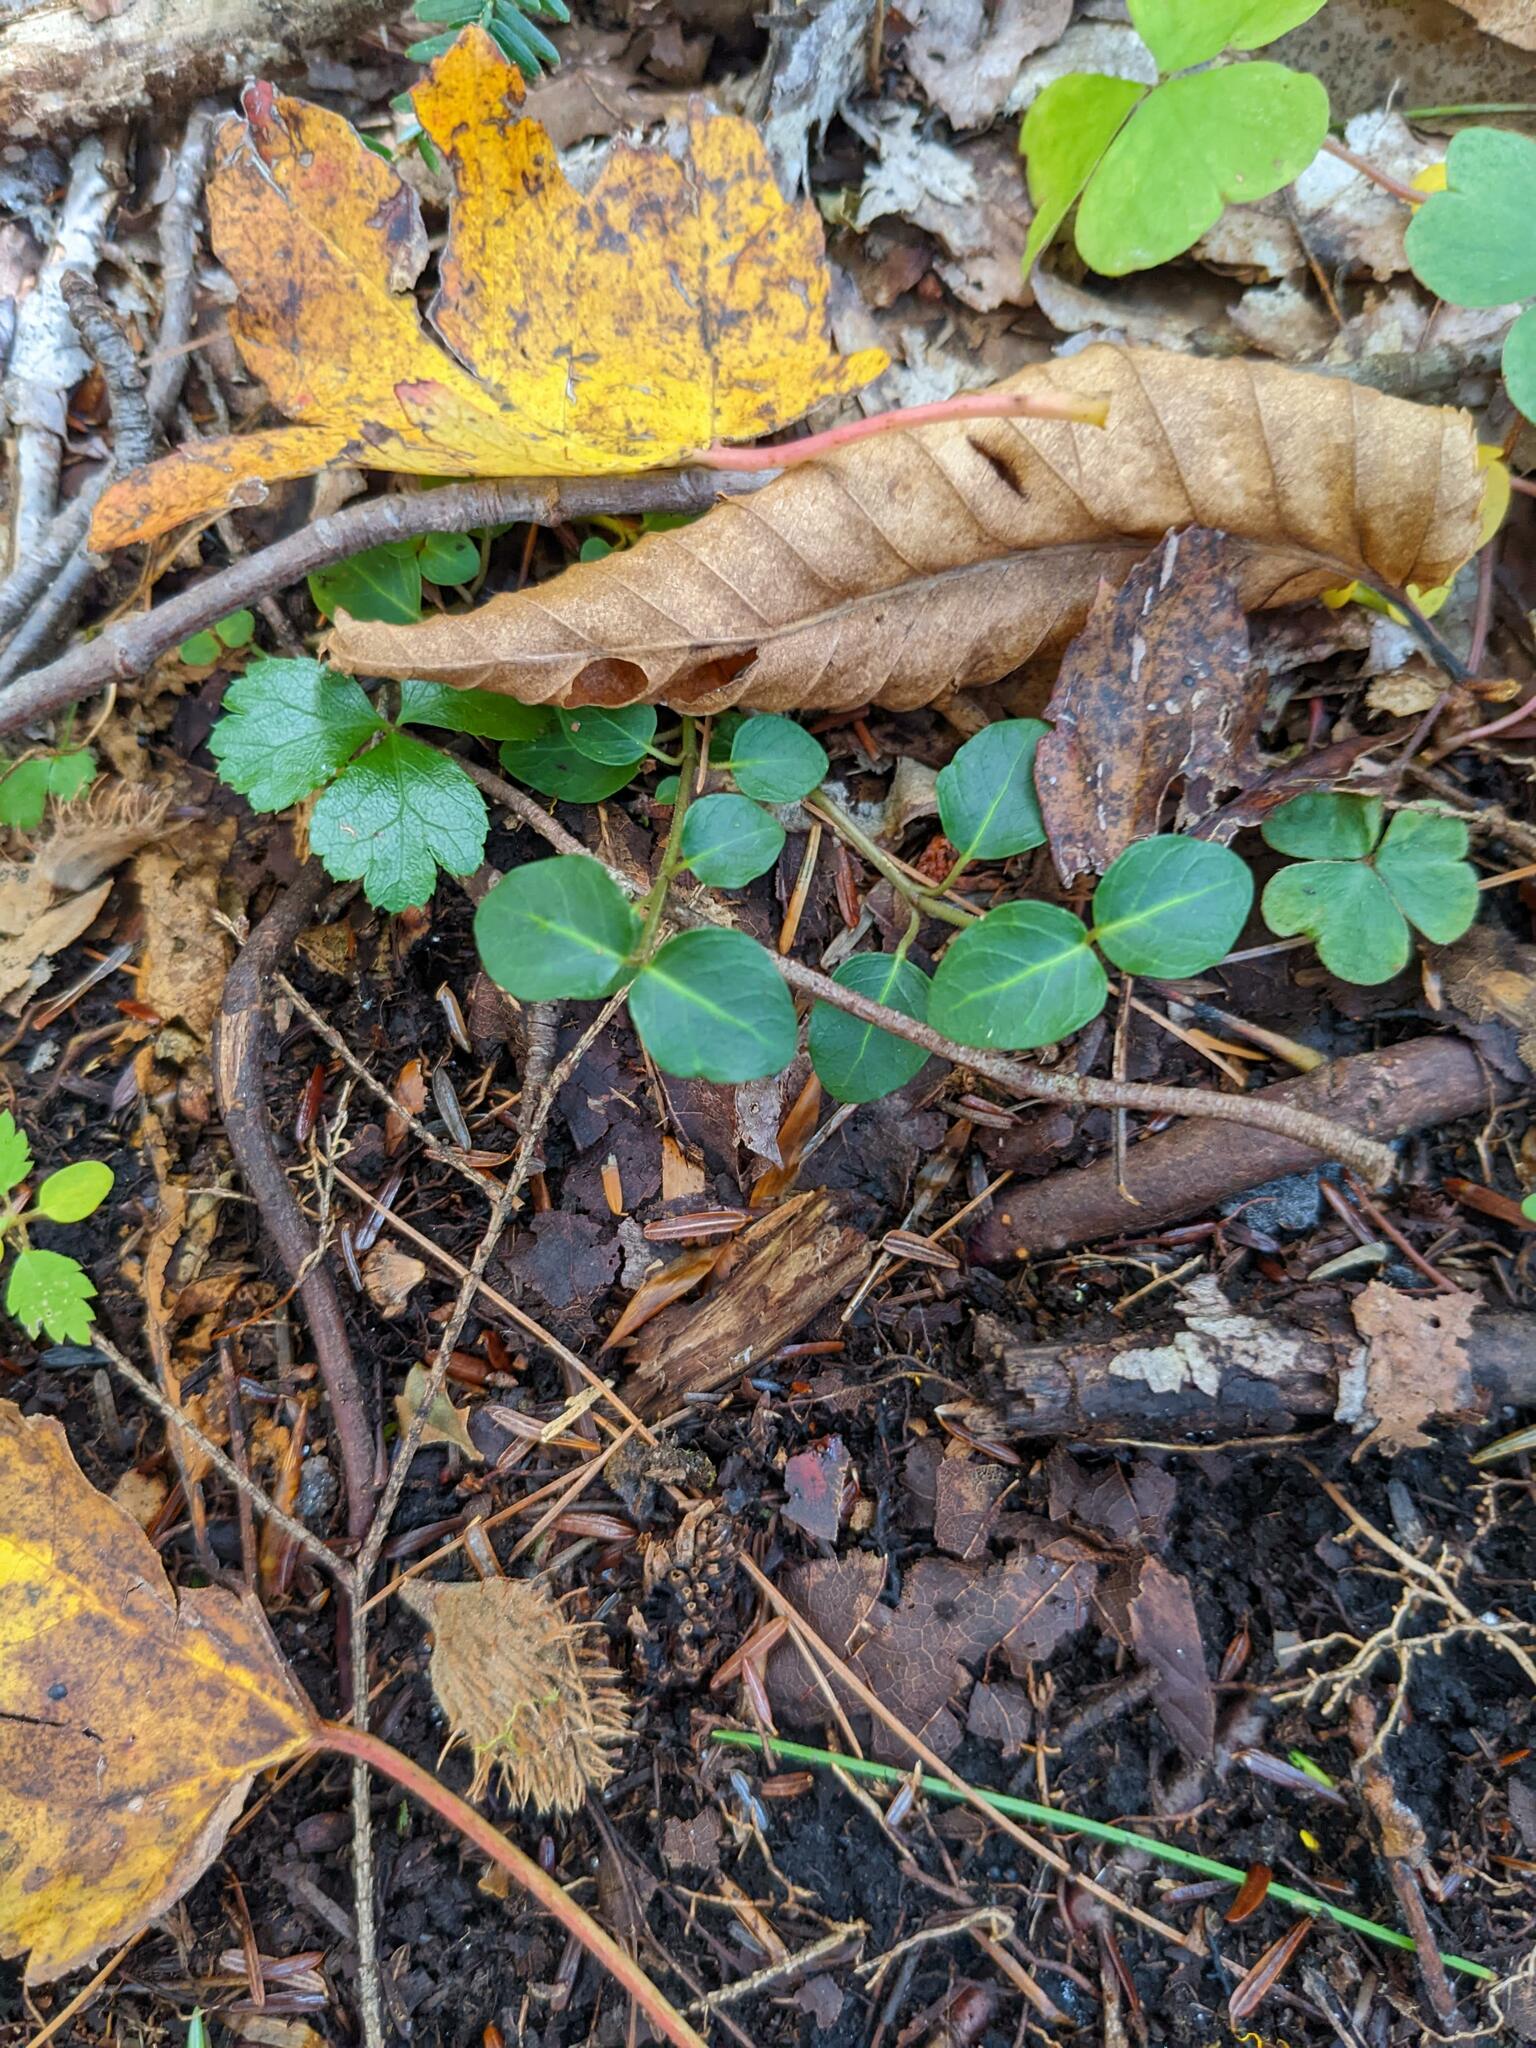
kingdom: Plantae
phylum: Tracheophyta
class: Magnoliopsida
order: Gentianales
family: Rubiaceae
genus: Mitchella
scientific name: Mitchella repens
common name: Partridge-berry
